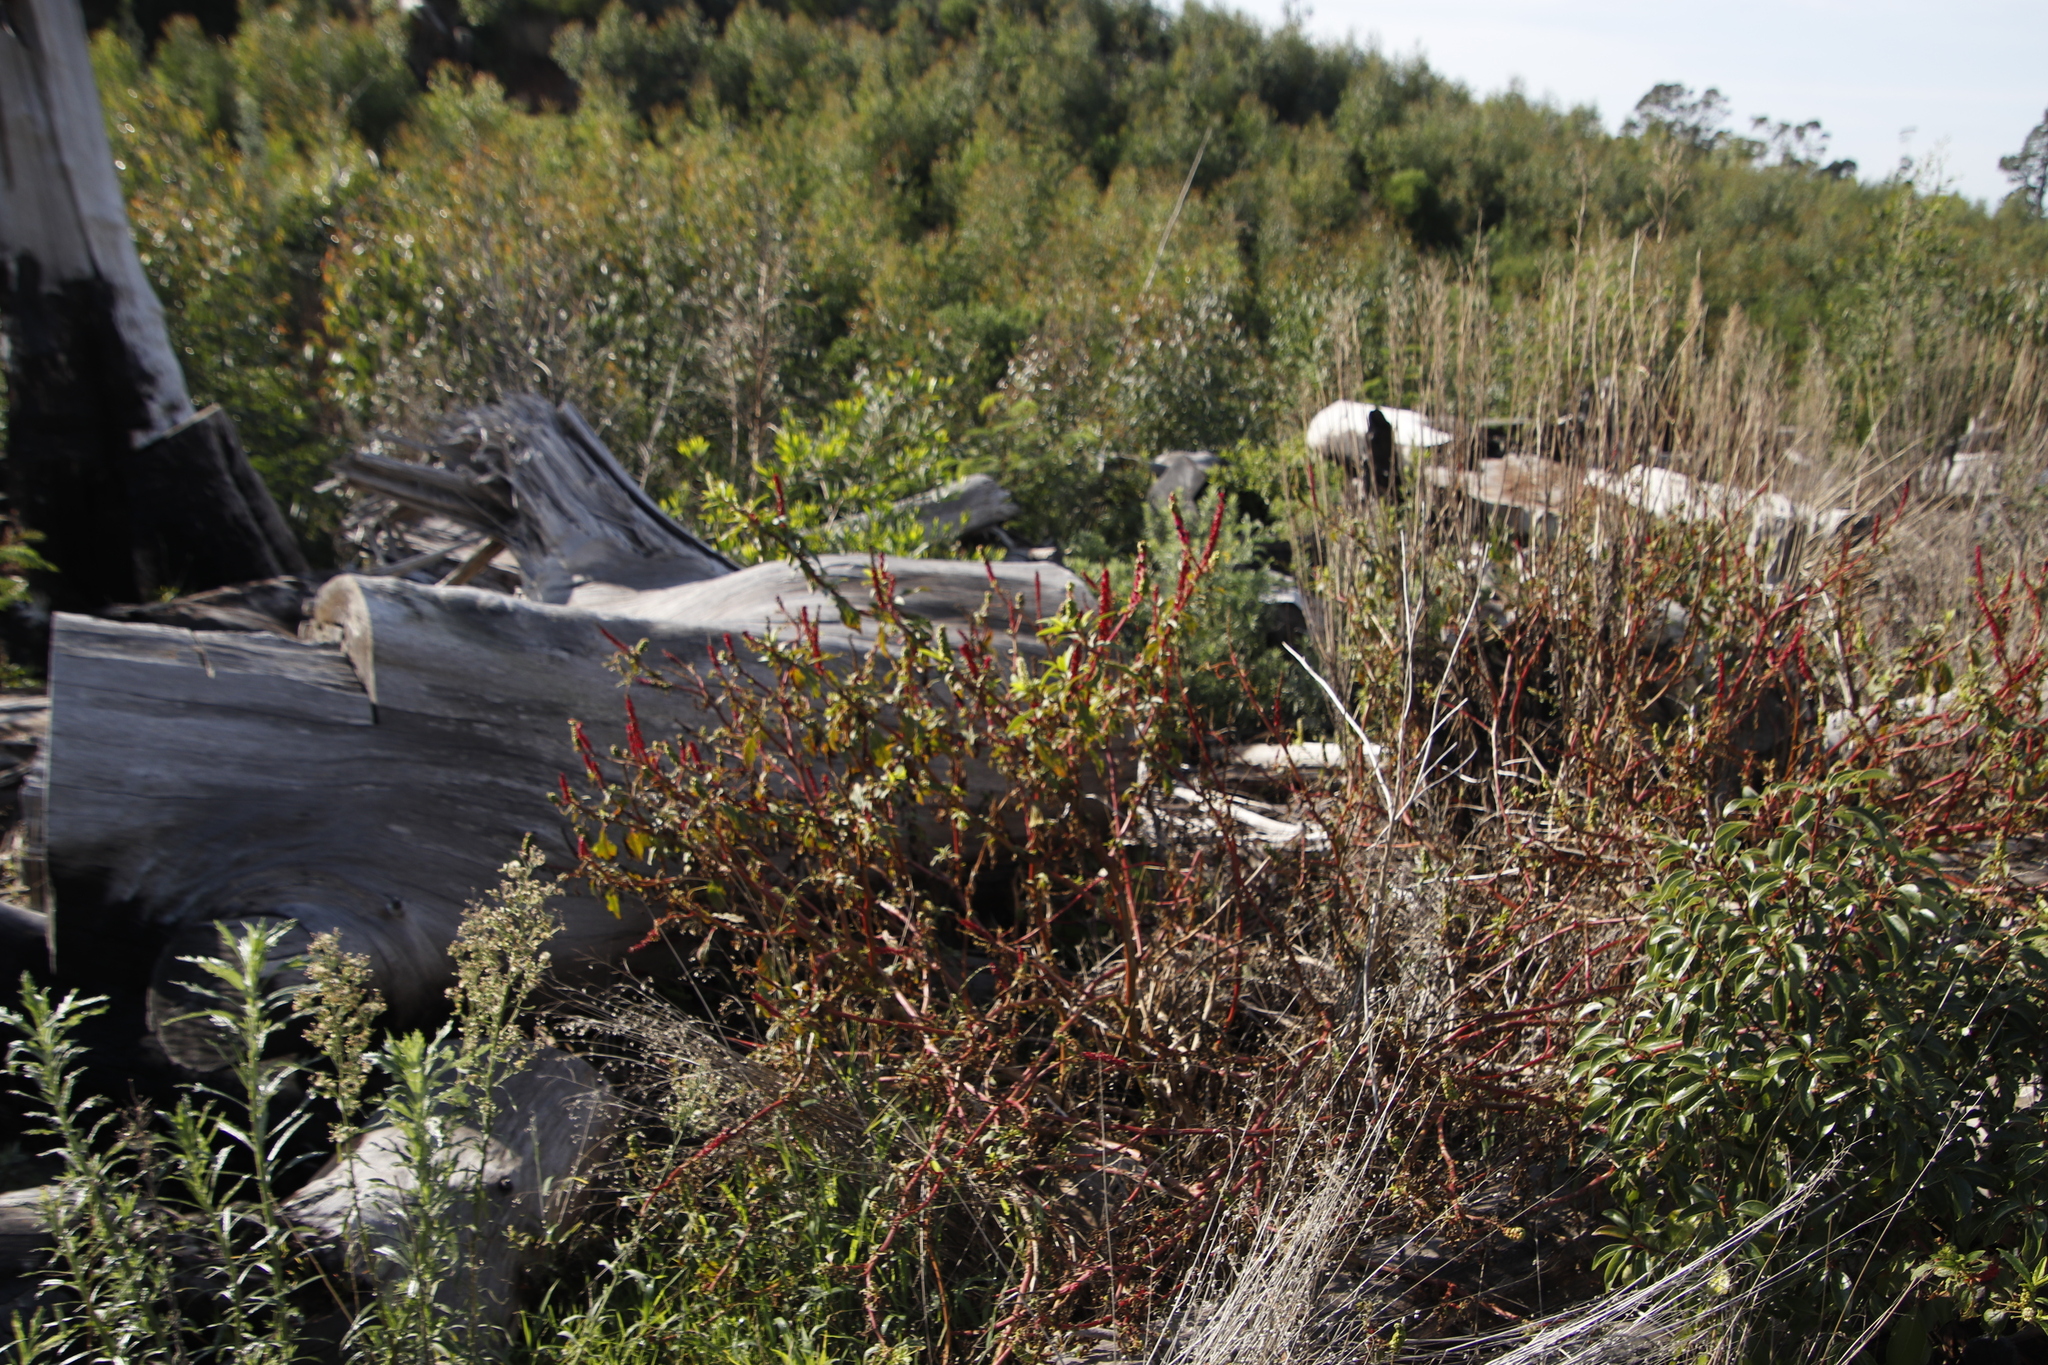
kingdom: Plantae
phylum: Tracheophyta
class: Magnoliopsida
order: Caryophyllales
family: Phytolaccaceae
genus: Phytolacca
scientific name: Phytolacca icosandra
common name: Button pokeweed
